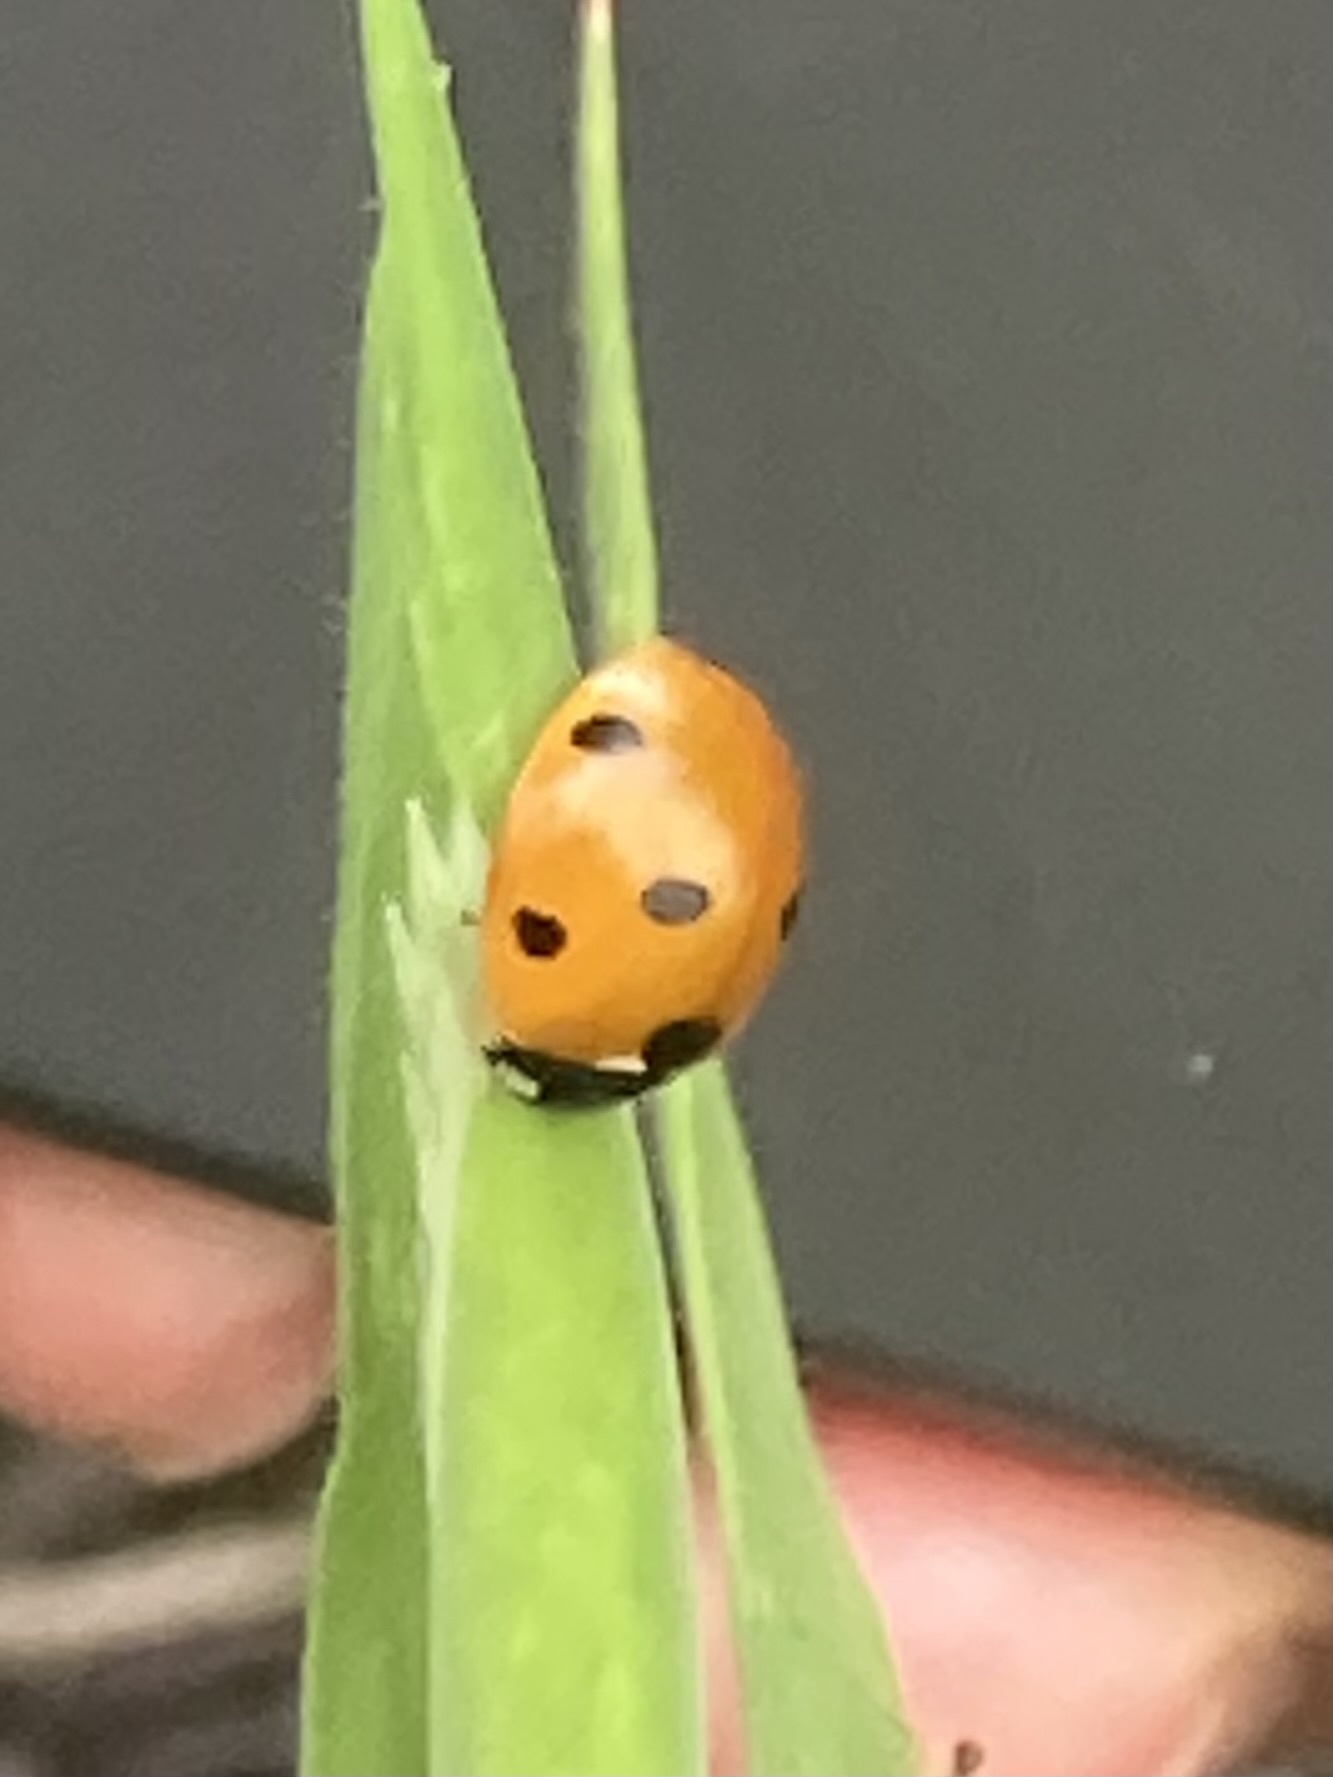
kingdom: Animalia
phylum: Arthropoda
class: Insecta
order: Coleoptera
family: Coccinellidae
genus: Coccinella
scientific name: Coccinella septempunctata
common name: Sevenspotted lady beetle
